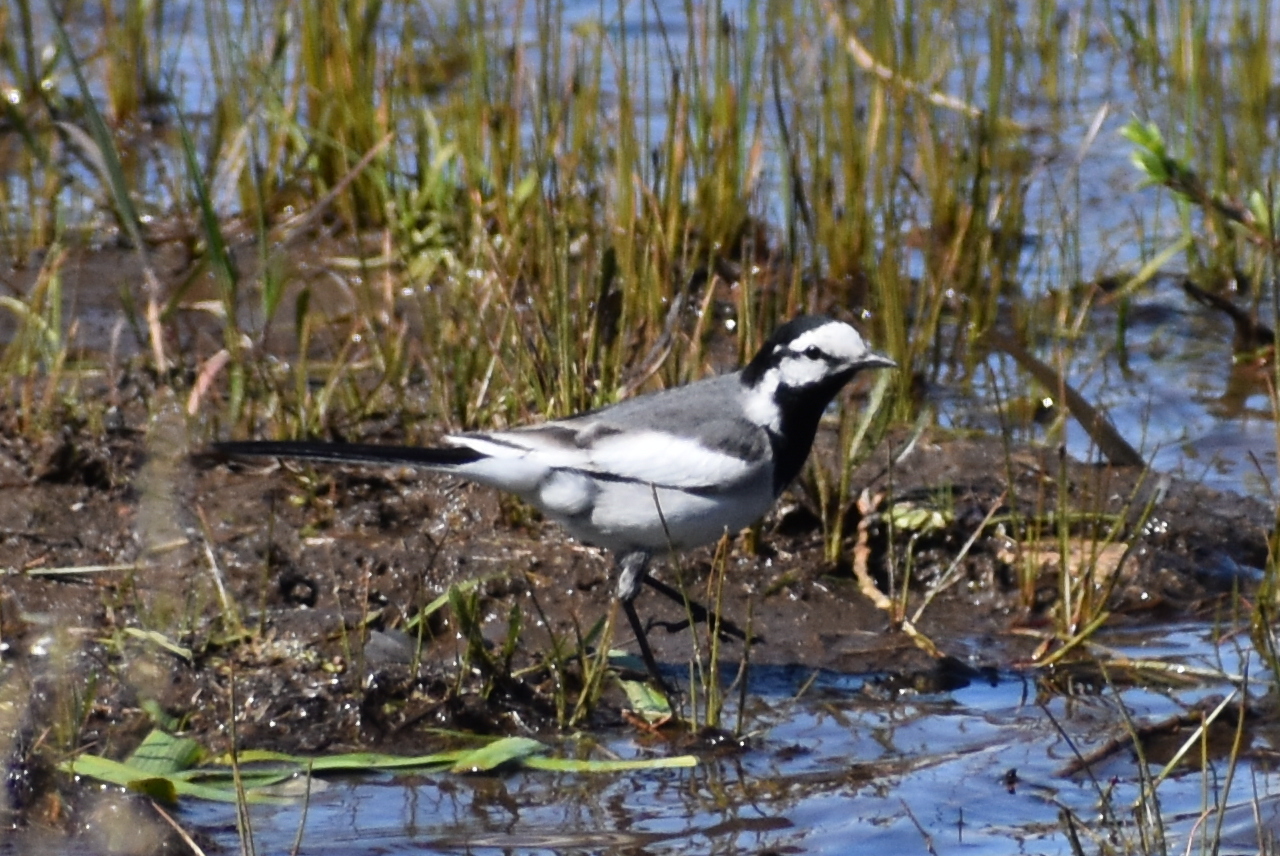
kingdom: Animalia
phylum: Chordata
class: Aves
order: Passeriformes
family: Motacillidae
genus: Motacilla
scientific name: Motacilla alba
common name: White wagtail
